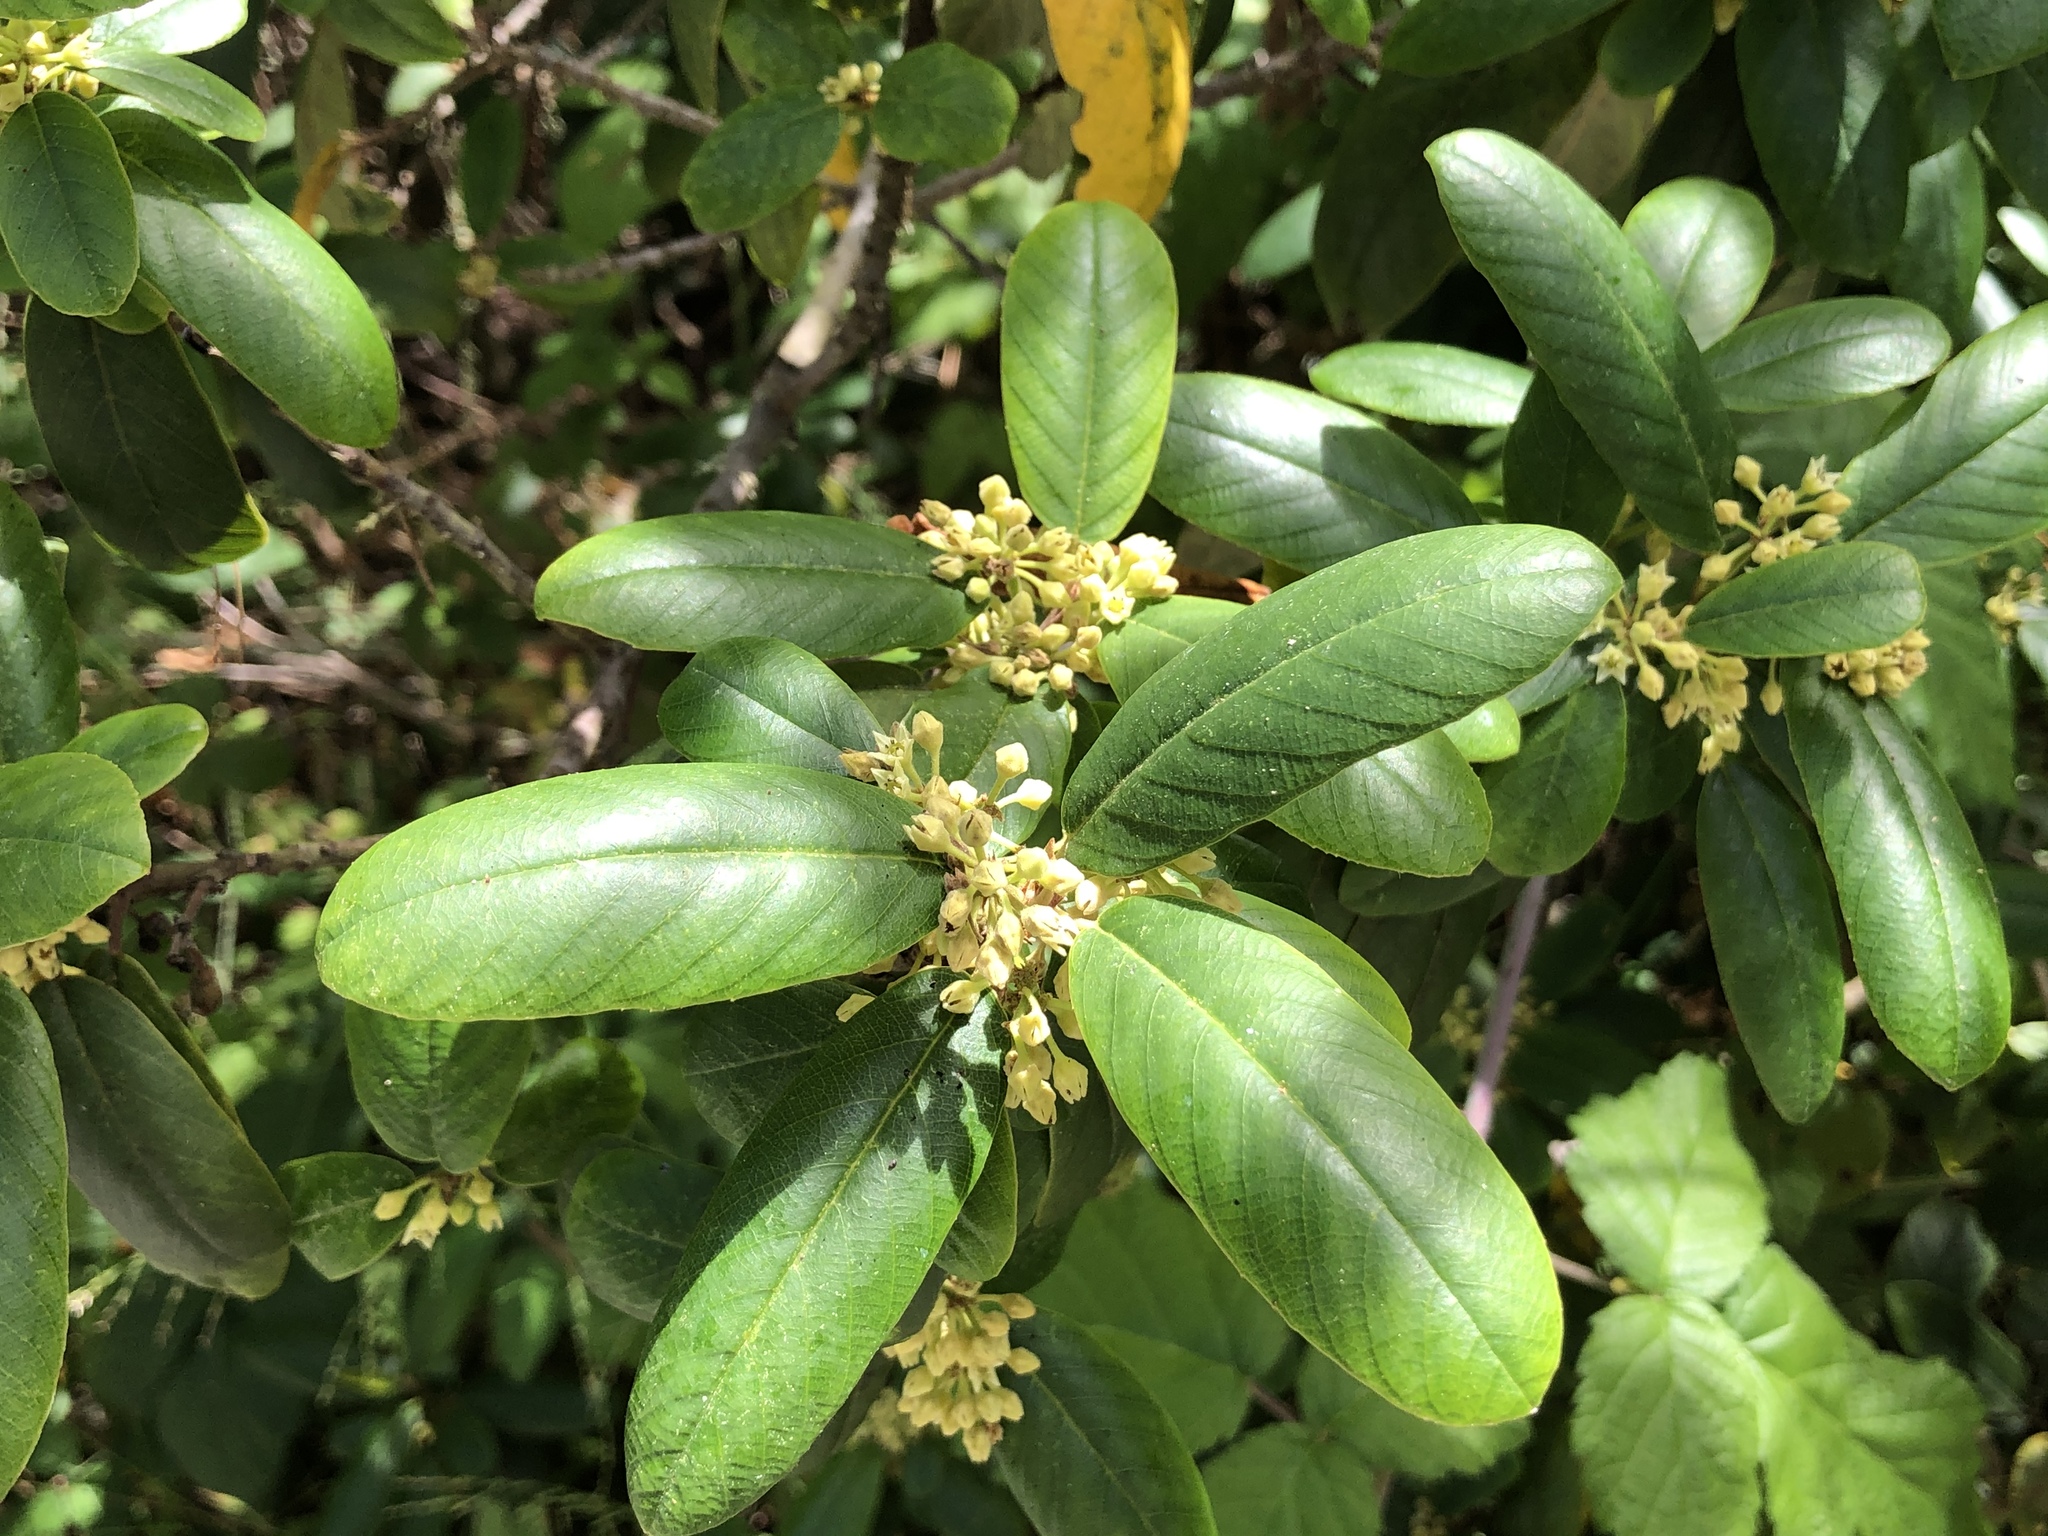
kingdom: Plantae
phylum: Tracheophyta
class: Magnoliopsida
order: Rosales
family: Rhamnaceae
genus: Frangula
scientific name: Frangula californica
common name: California buckthorn
